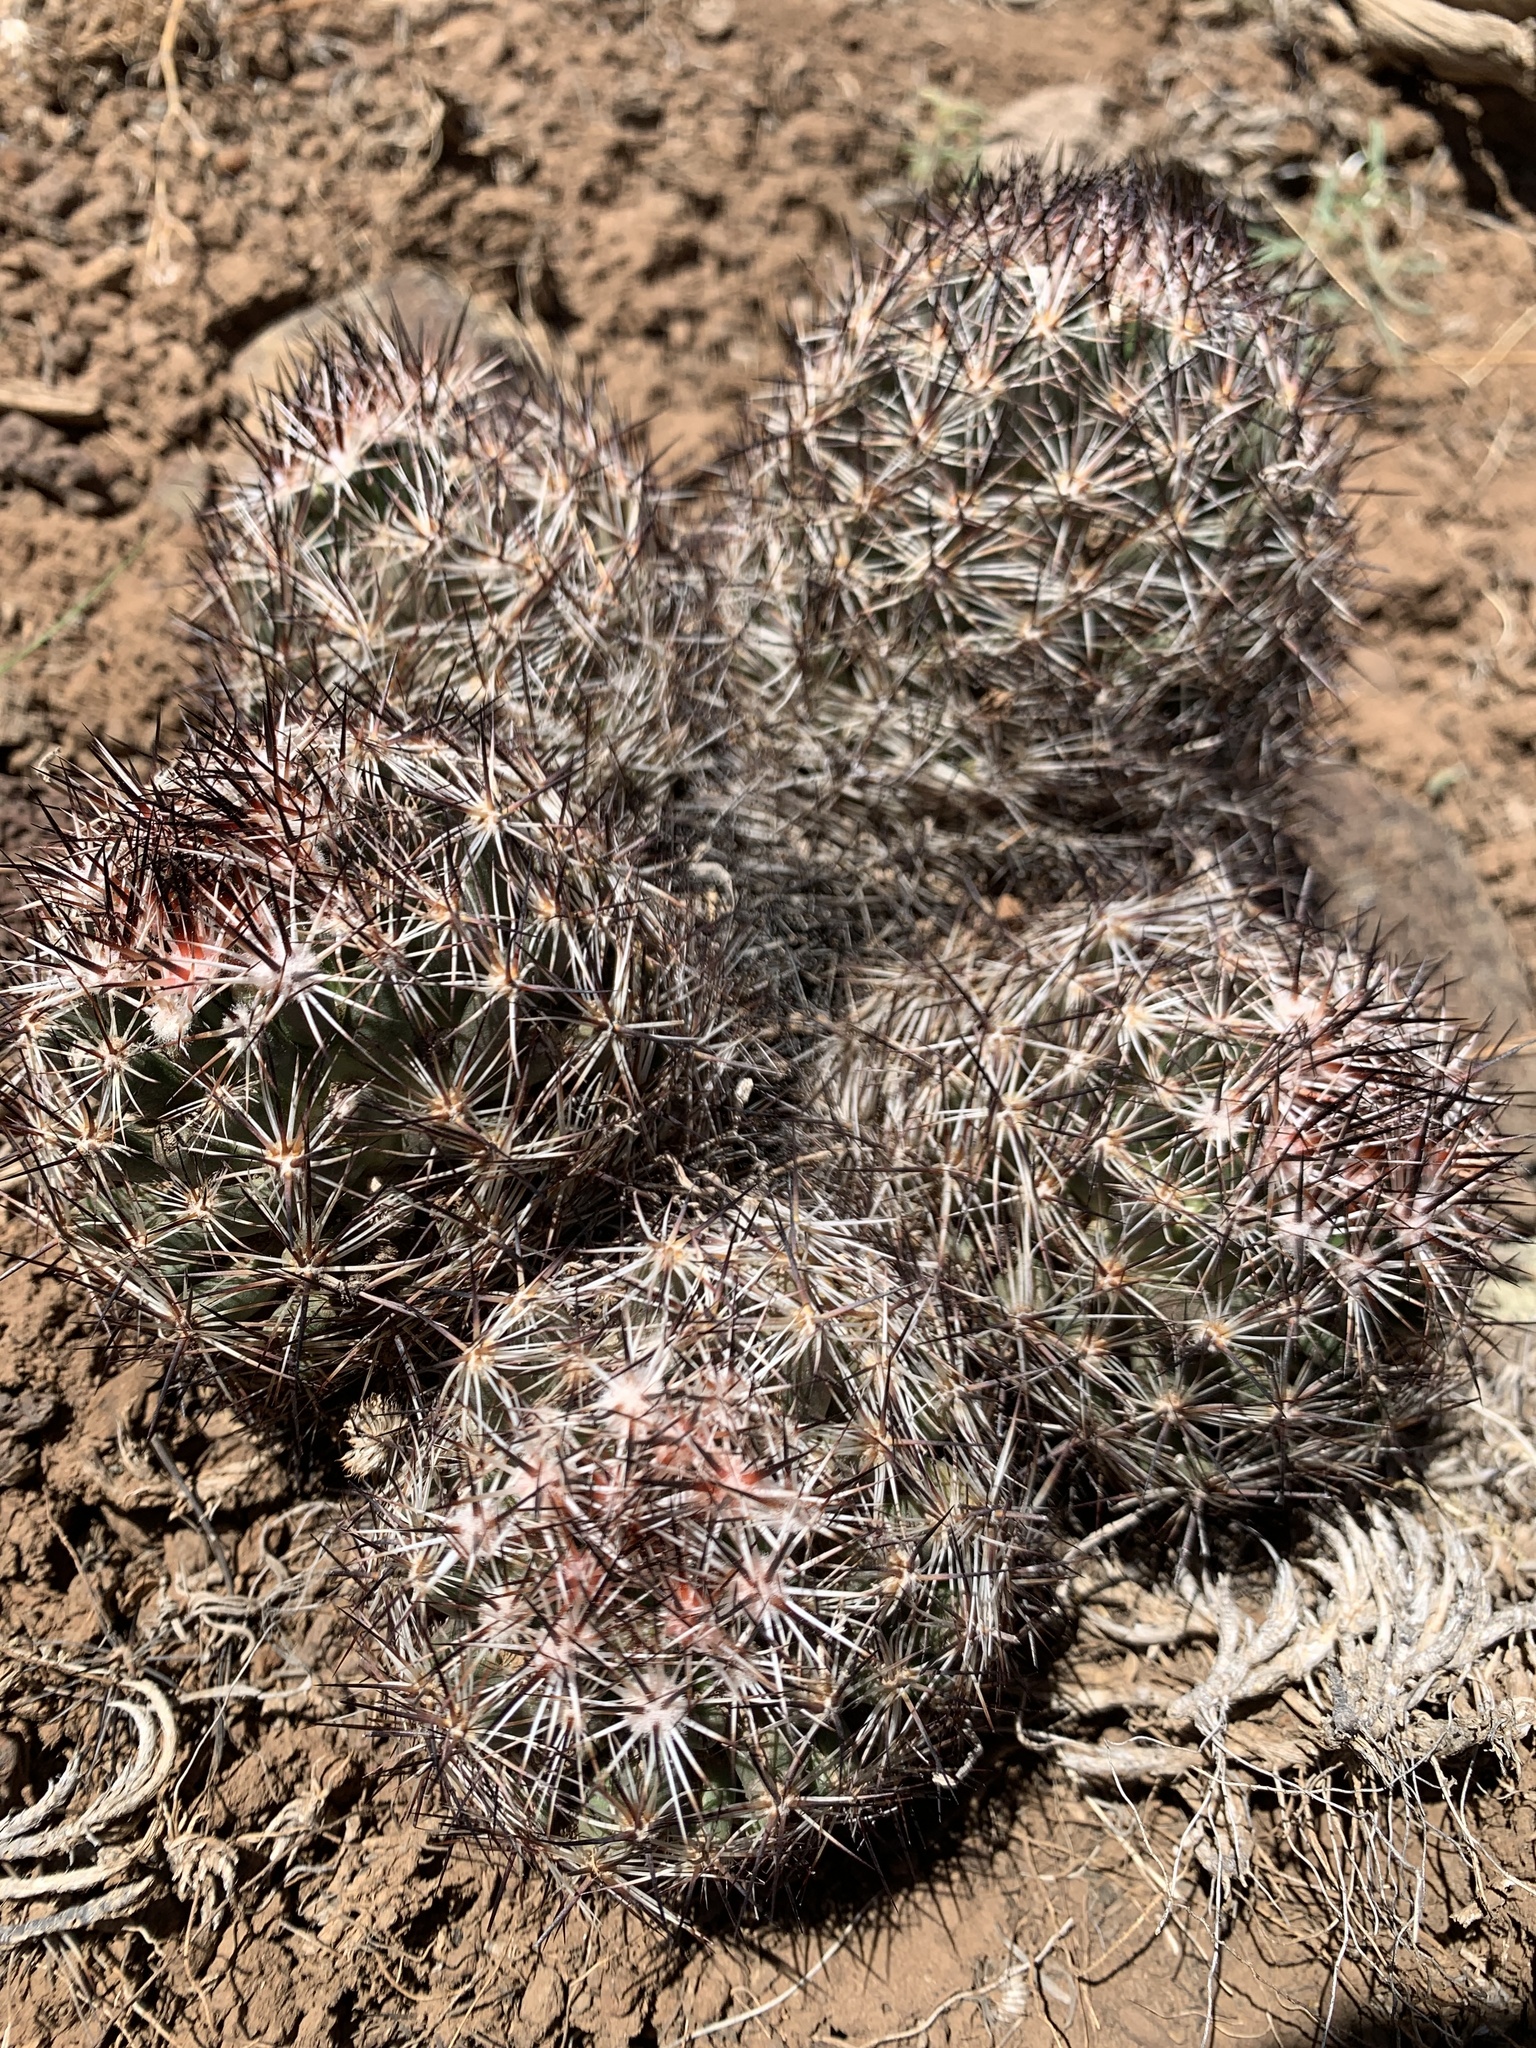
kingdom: Plantae
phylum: Tracheophyta
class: Magnoliopsida
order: Caryophyllales
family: Cactaceae
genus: Pelecyphora
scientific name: Pelecyphora vivipara
